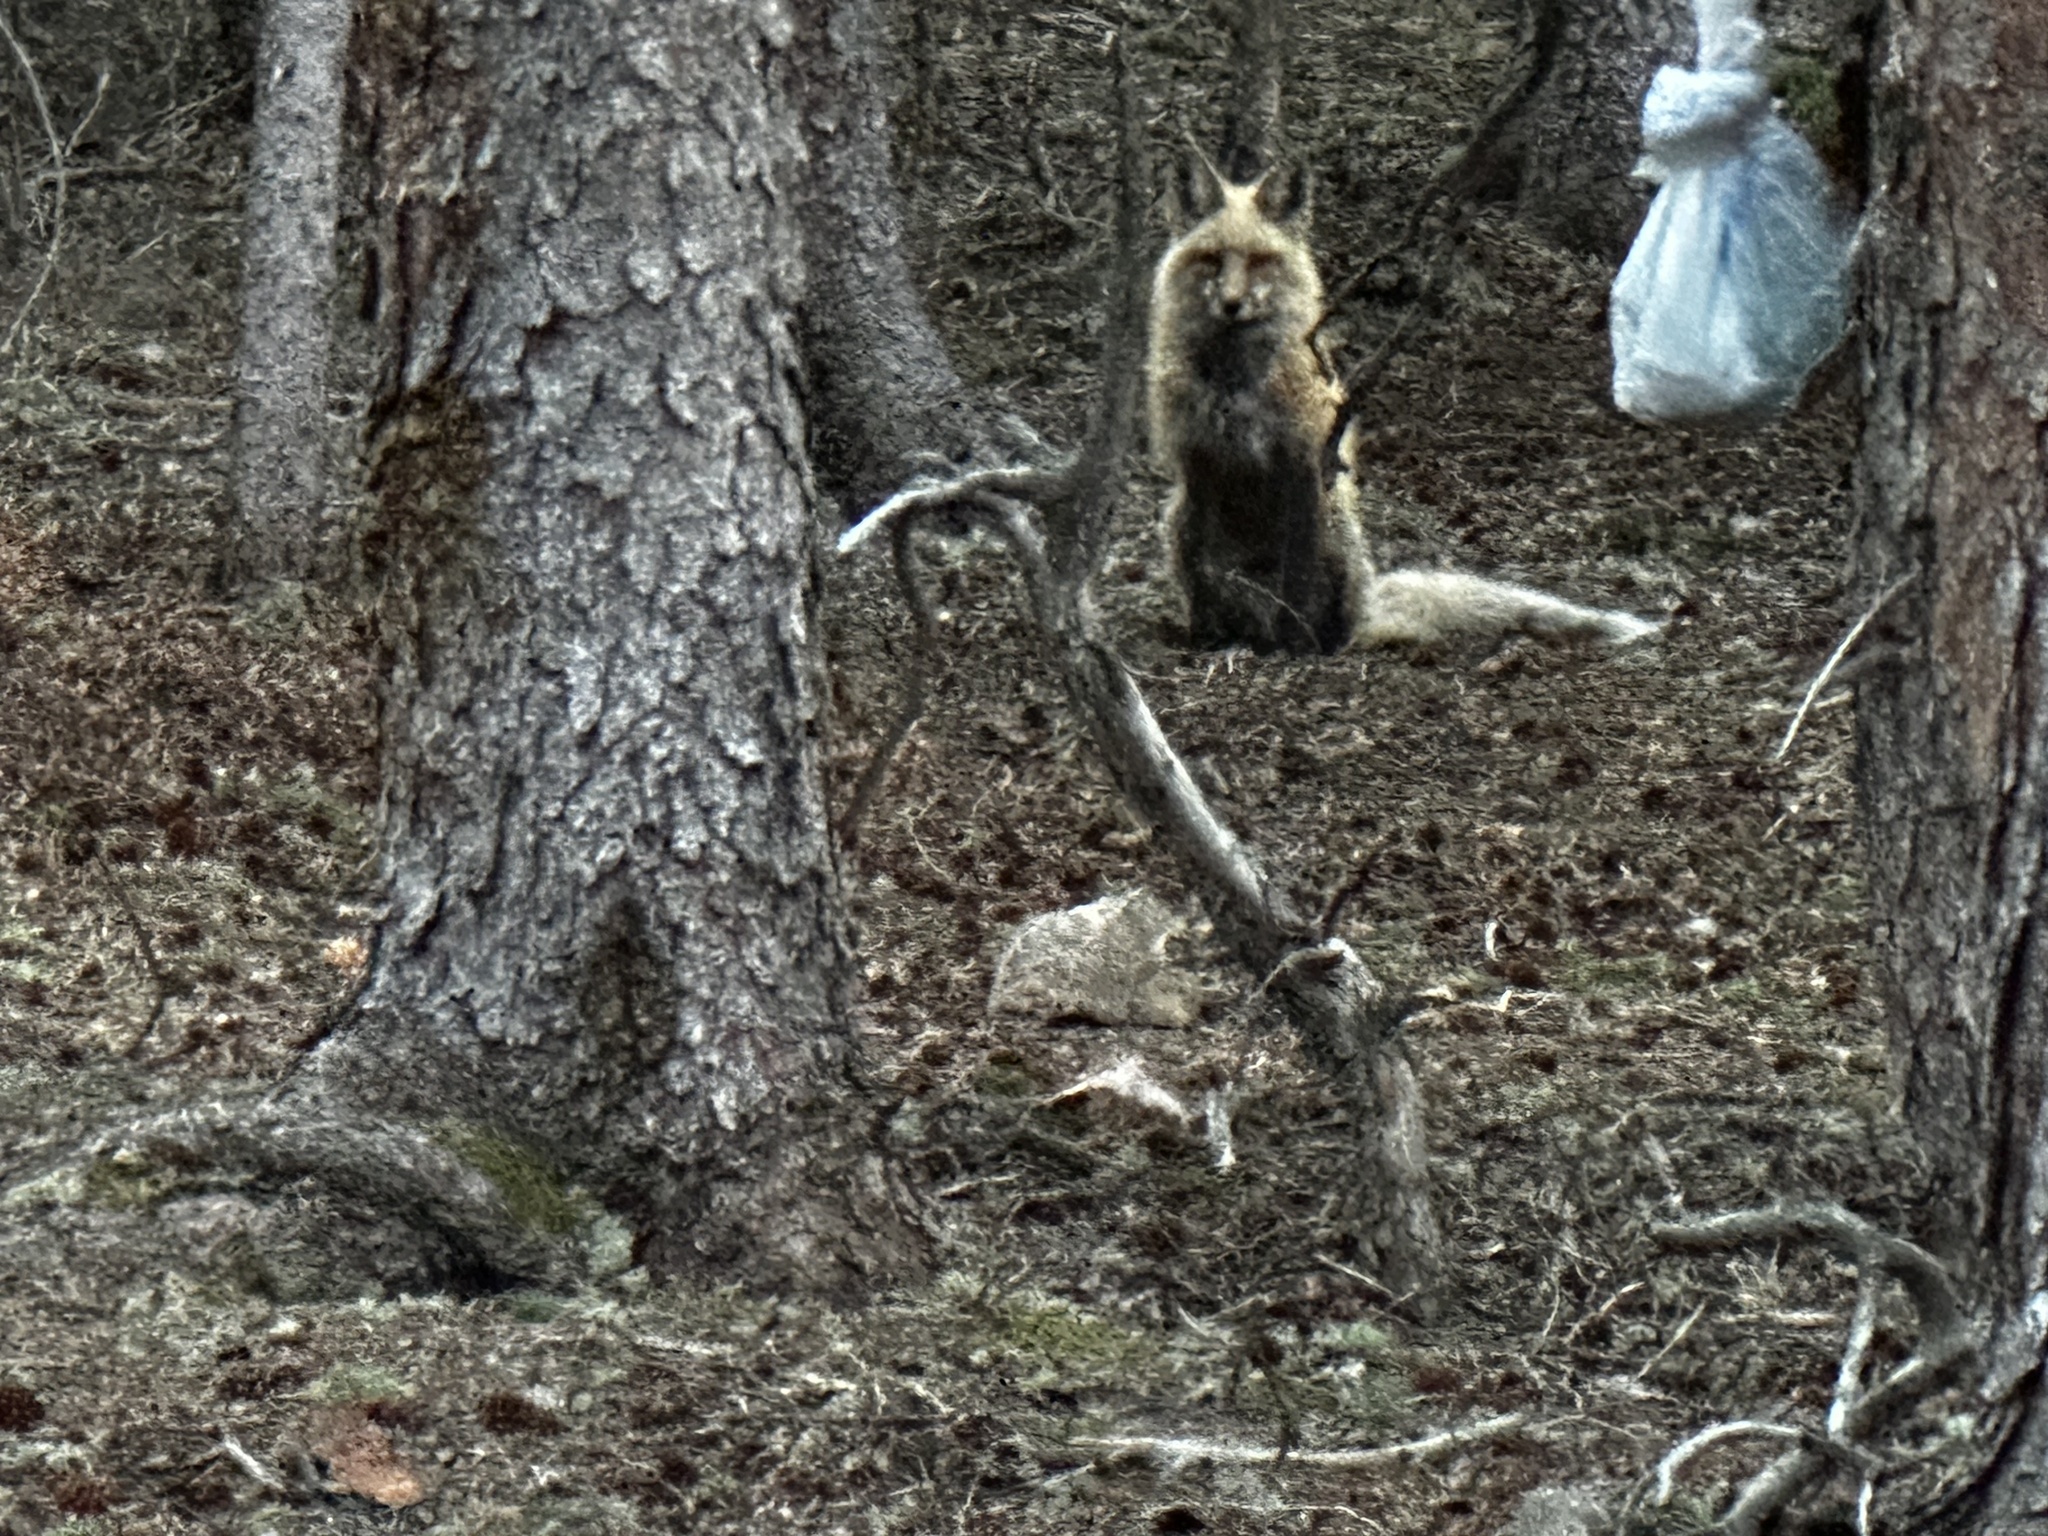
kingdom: Animalia
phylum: Chordata
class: Mammalia
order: Carnivora
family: Canidae
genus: Vulpes
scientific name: Vulpes vulpes
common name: Red fox
